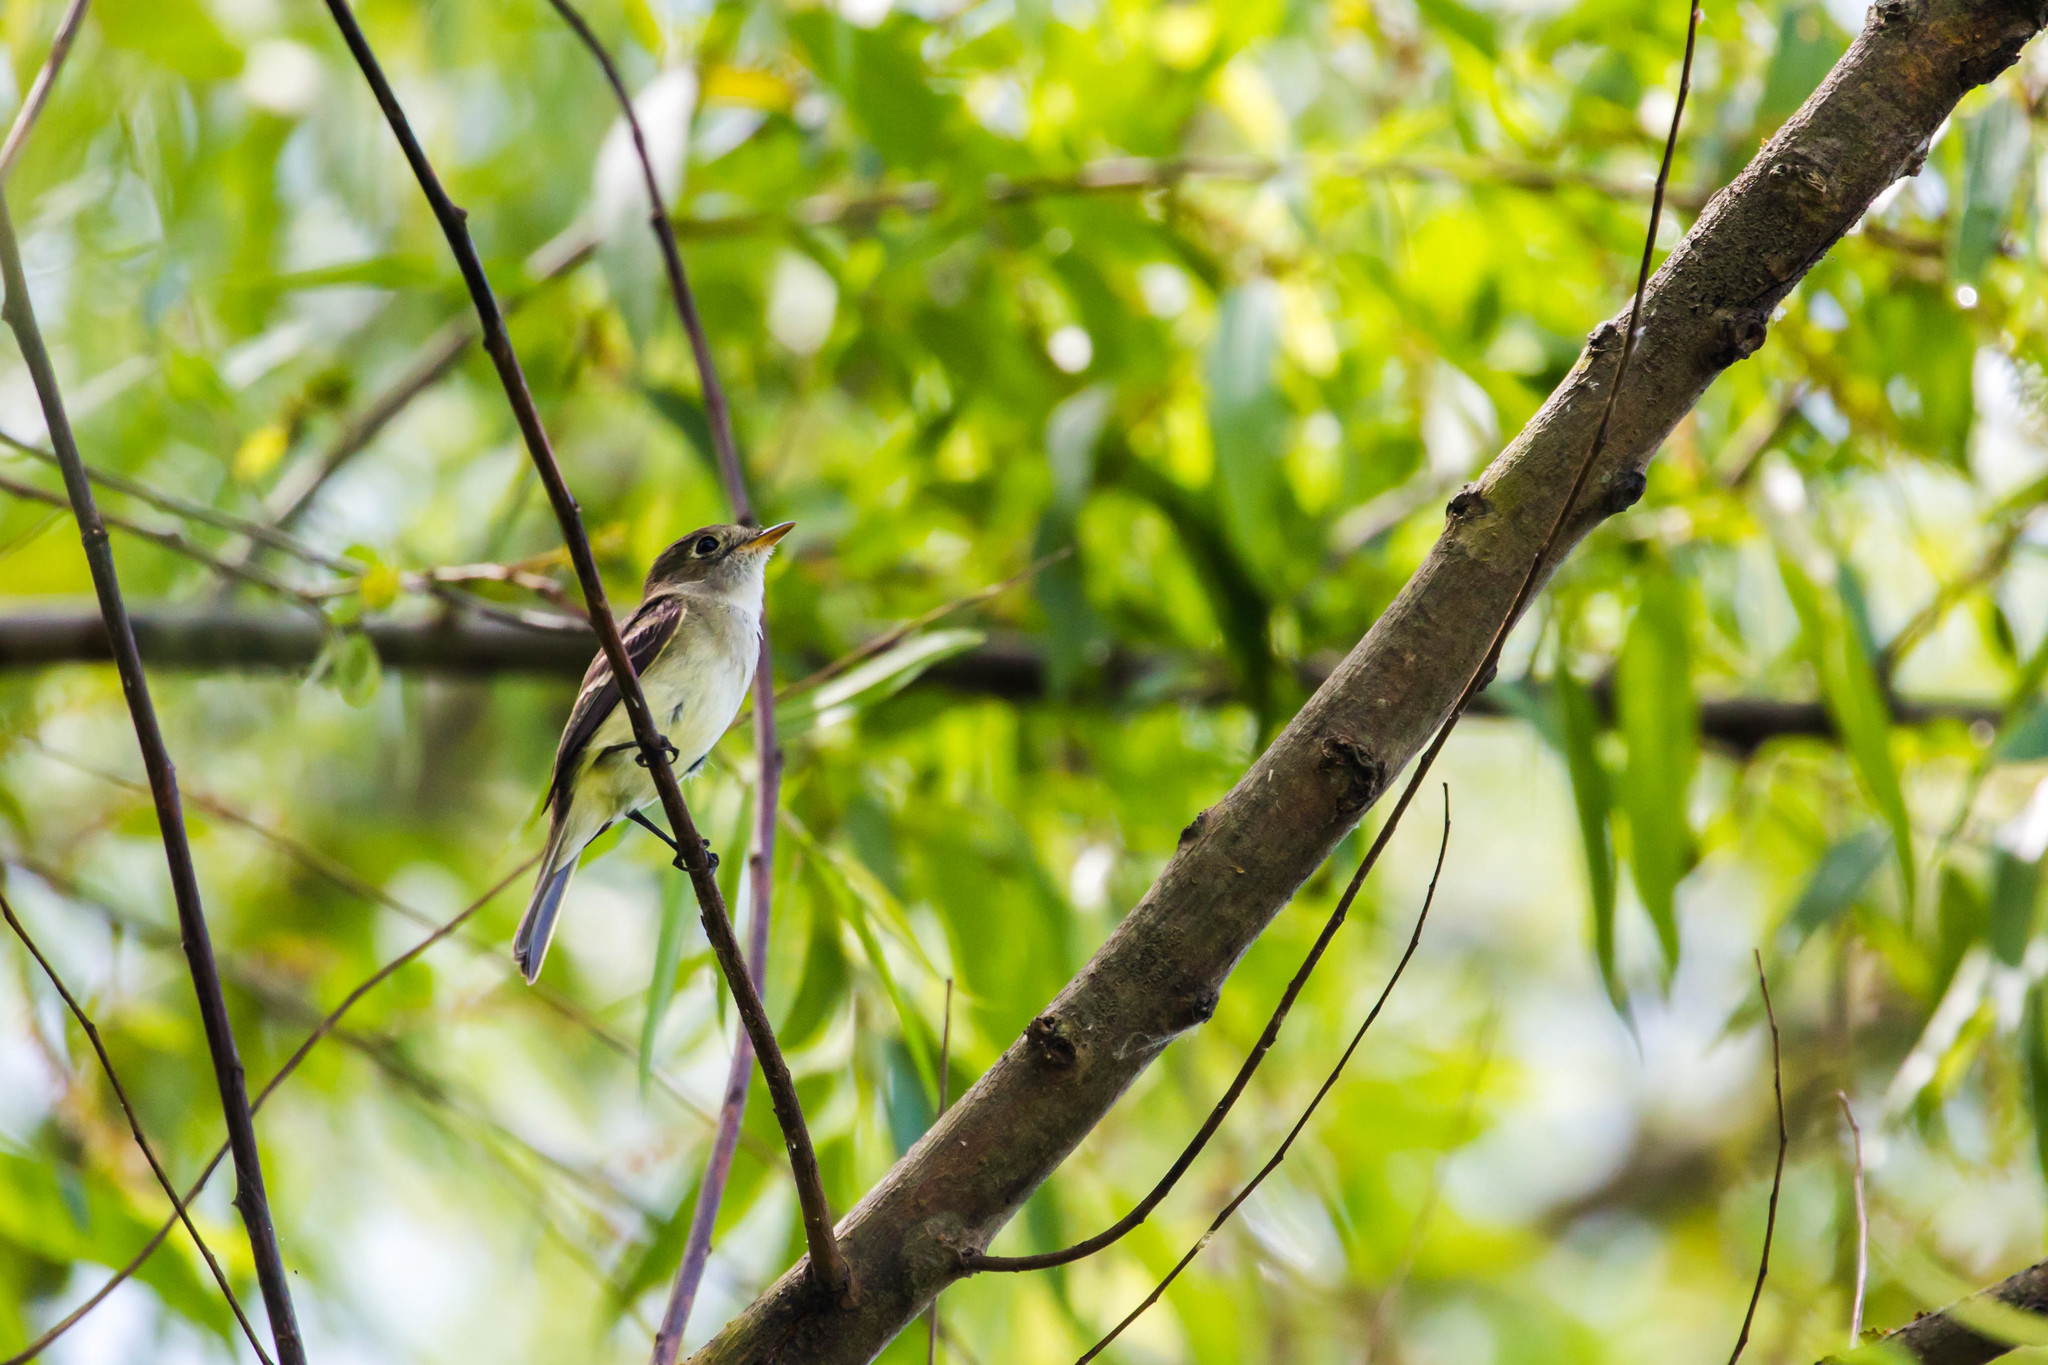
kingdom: Animalia
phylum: Chordata
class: Aves
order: Passeriformes
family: Tyrannidae
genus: Empidonax
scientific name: Empidonax minimus
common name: Least flycatcher
